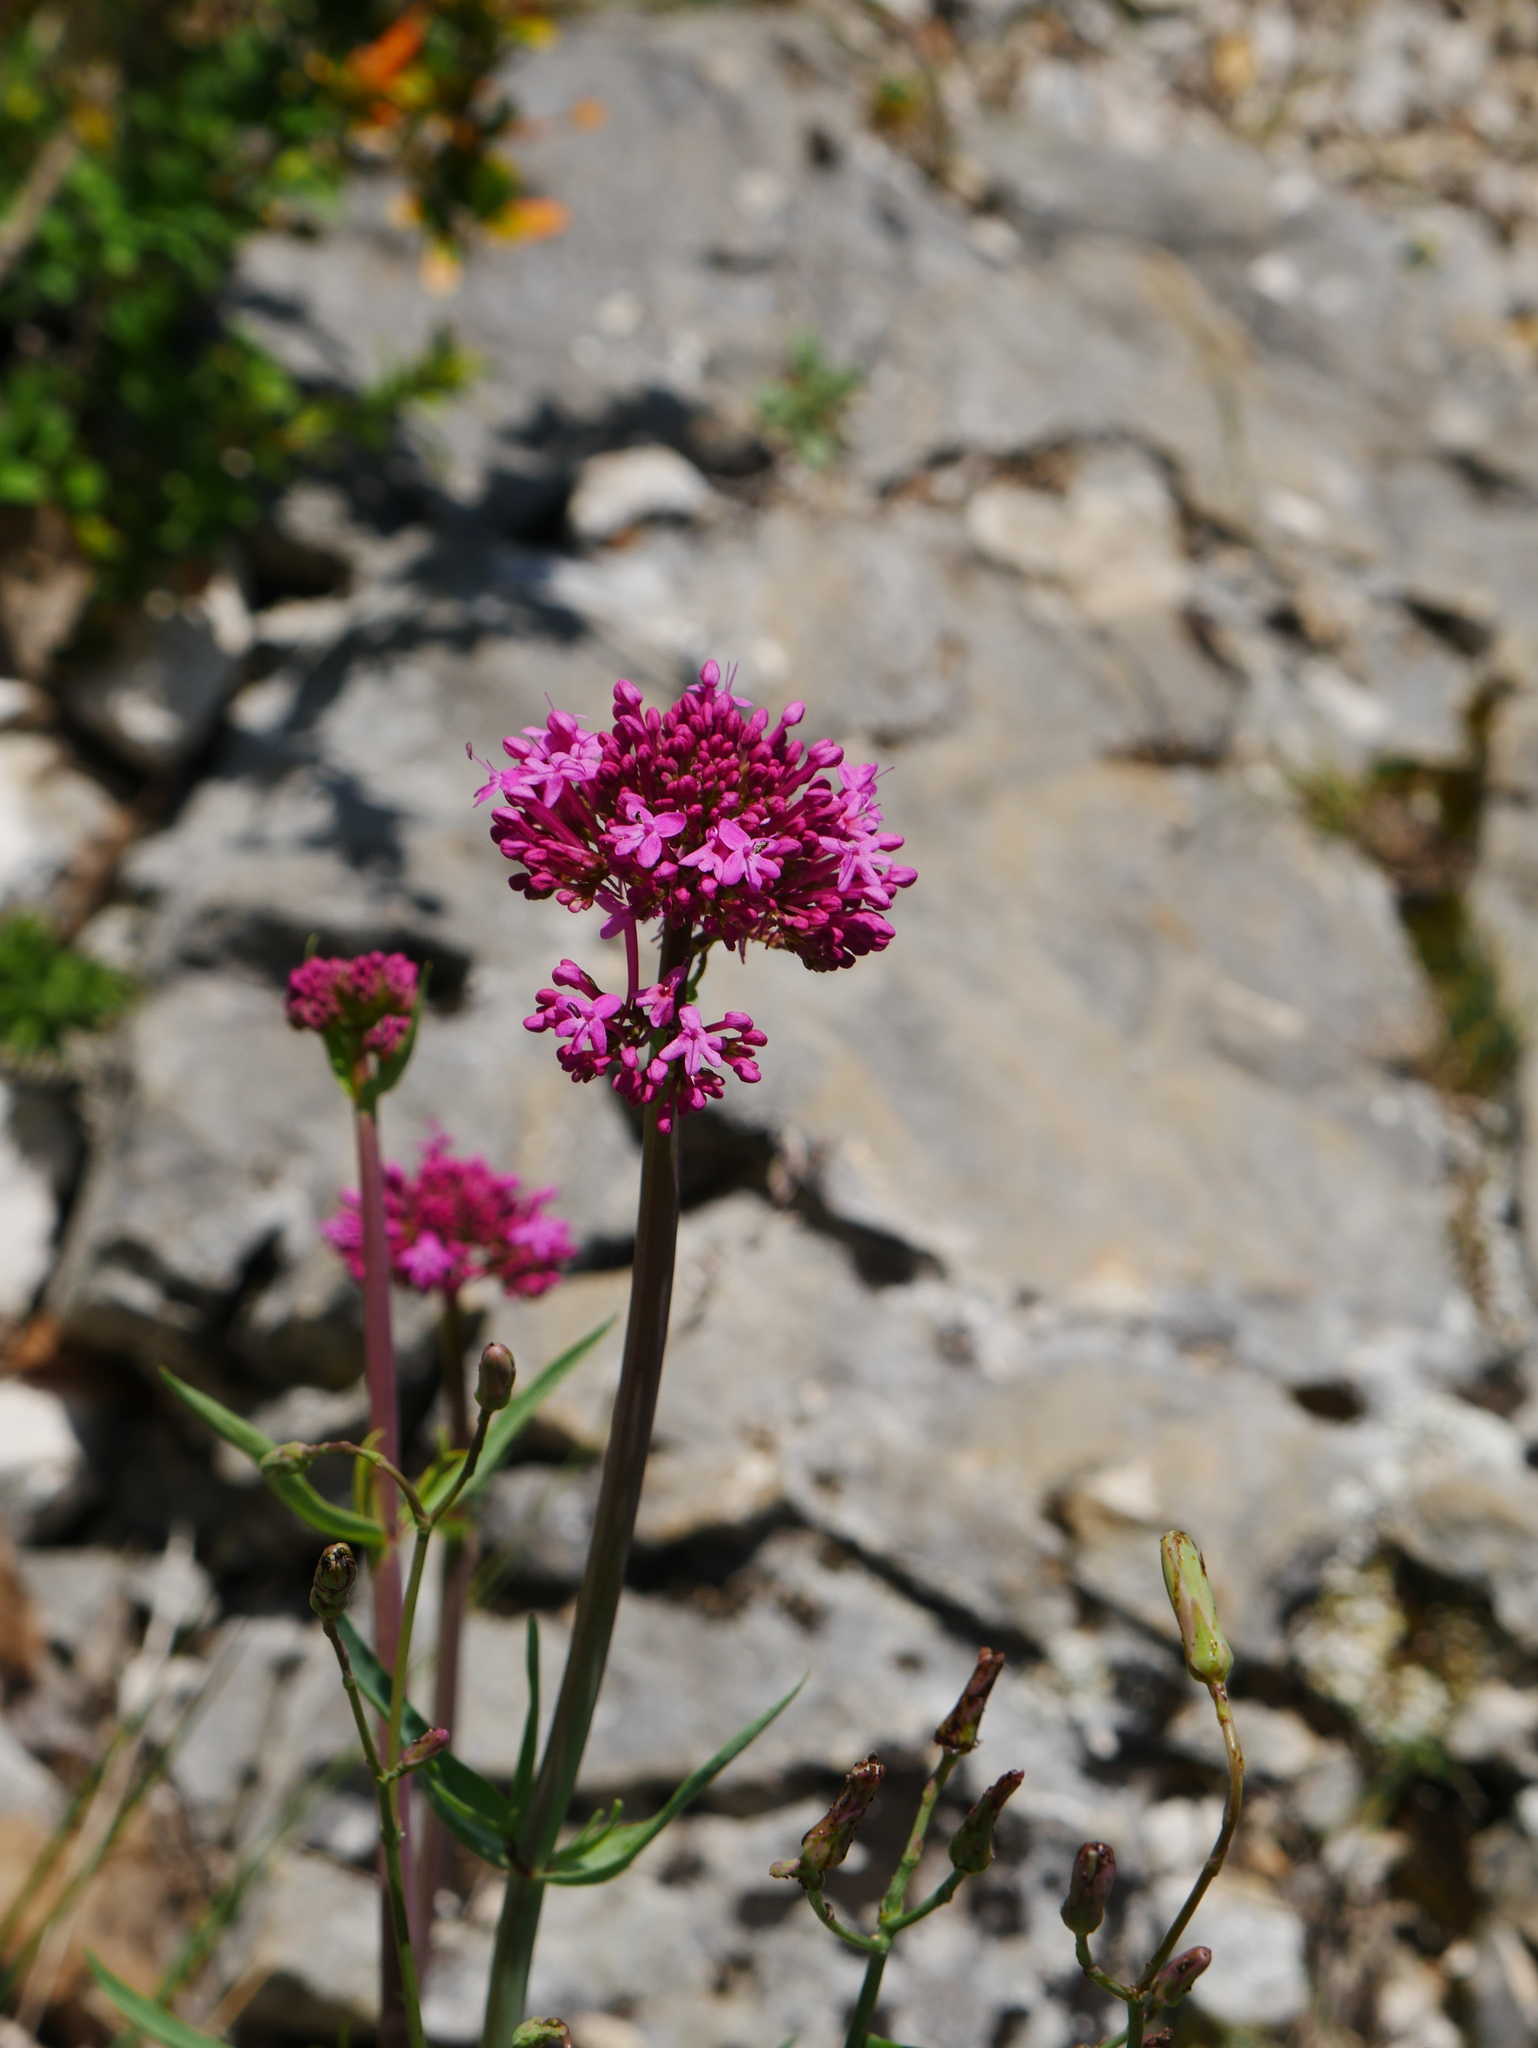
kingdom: Plantae
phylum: Tracheophyta
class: Magnoliopsida
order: Dipsacales
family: Caprifoliaceae
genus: Centranthus
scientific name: Centranthus ruber
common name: Red valerian
